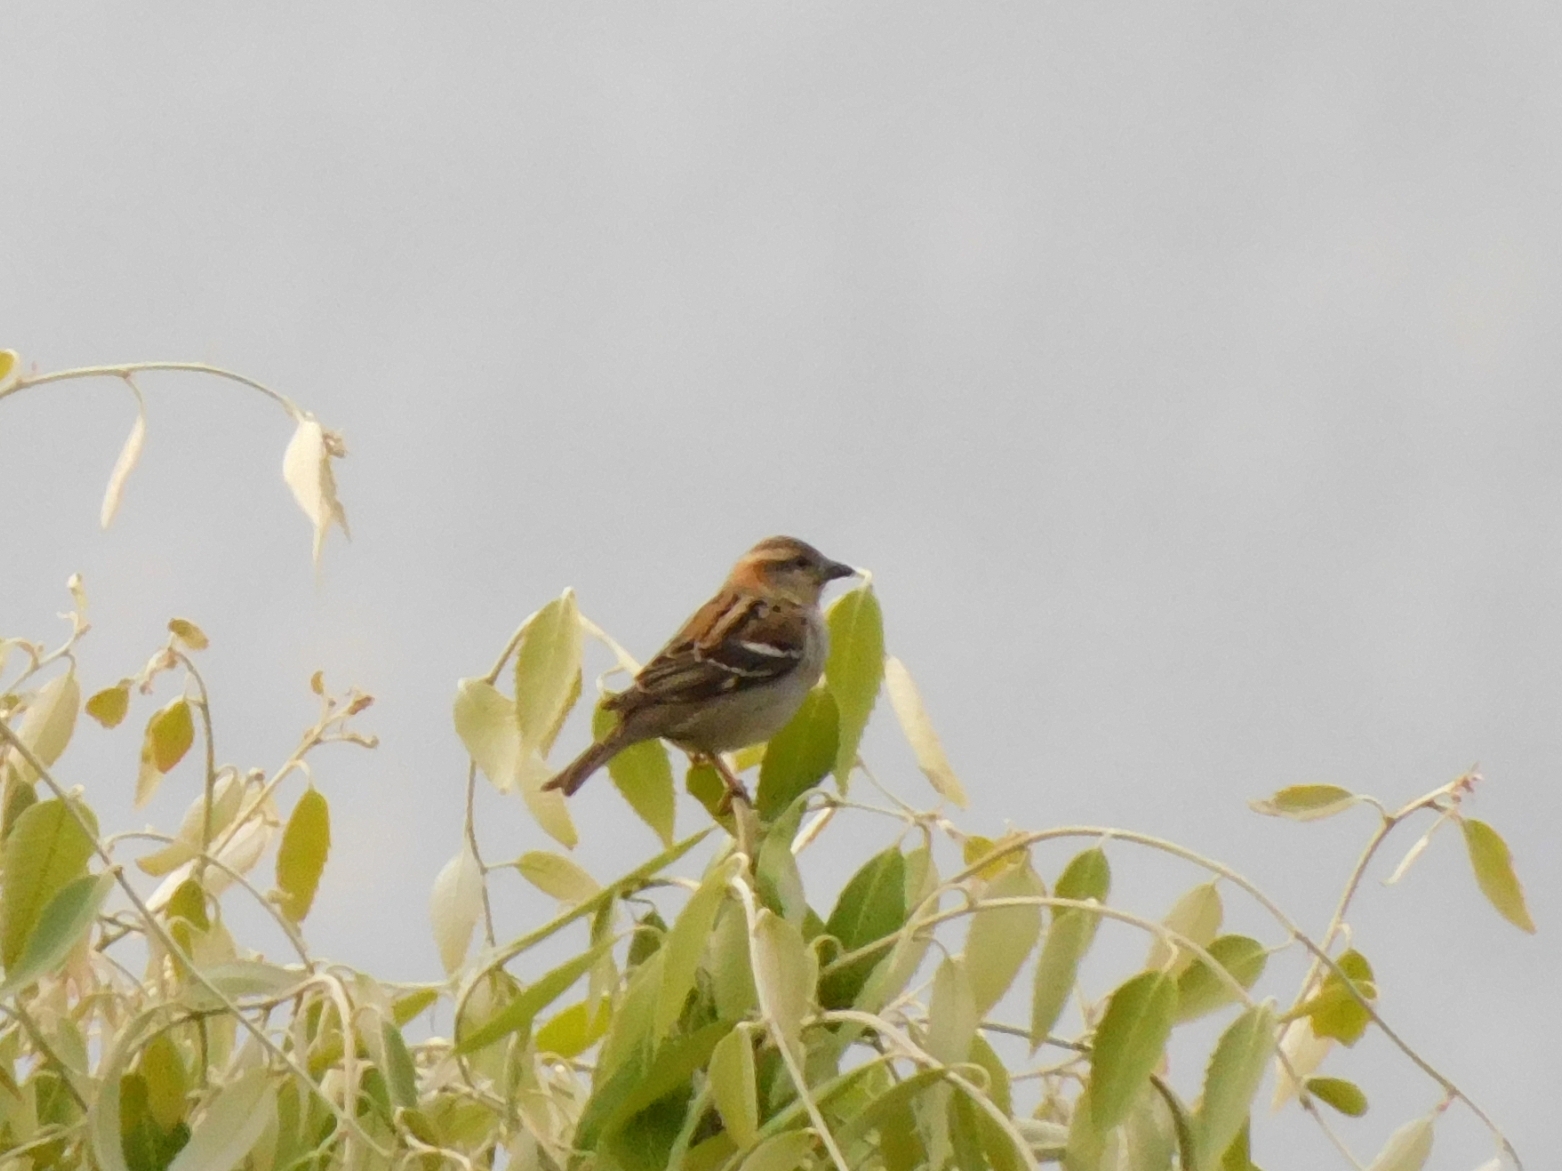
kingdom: Animalia
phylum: Chordata
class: Aves
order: Passeriformes
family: Passeridae
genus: Passer
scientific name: Passer cinnamomeus
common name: Russet sparrow
